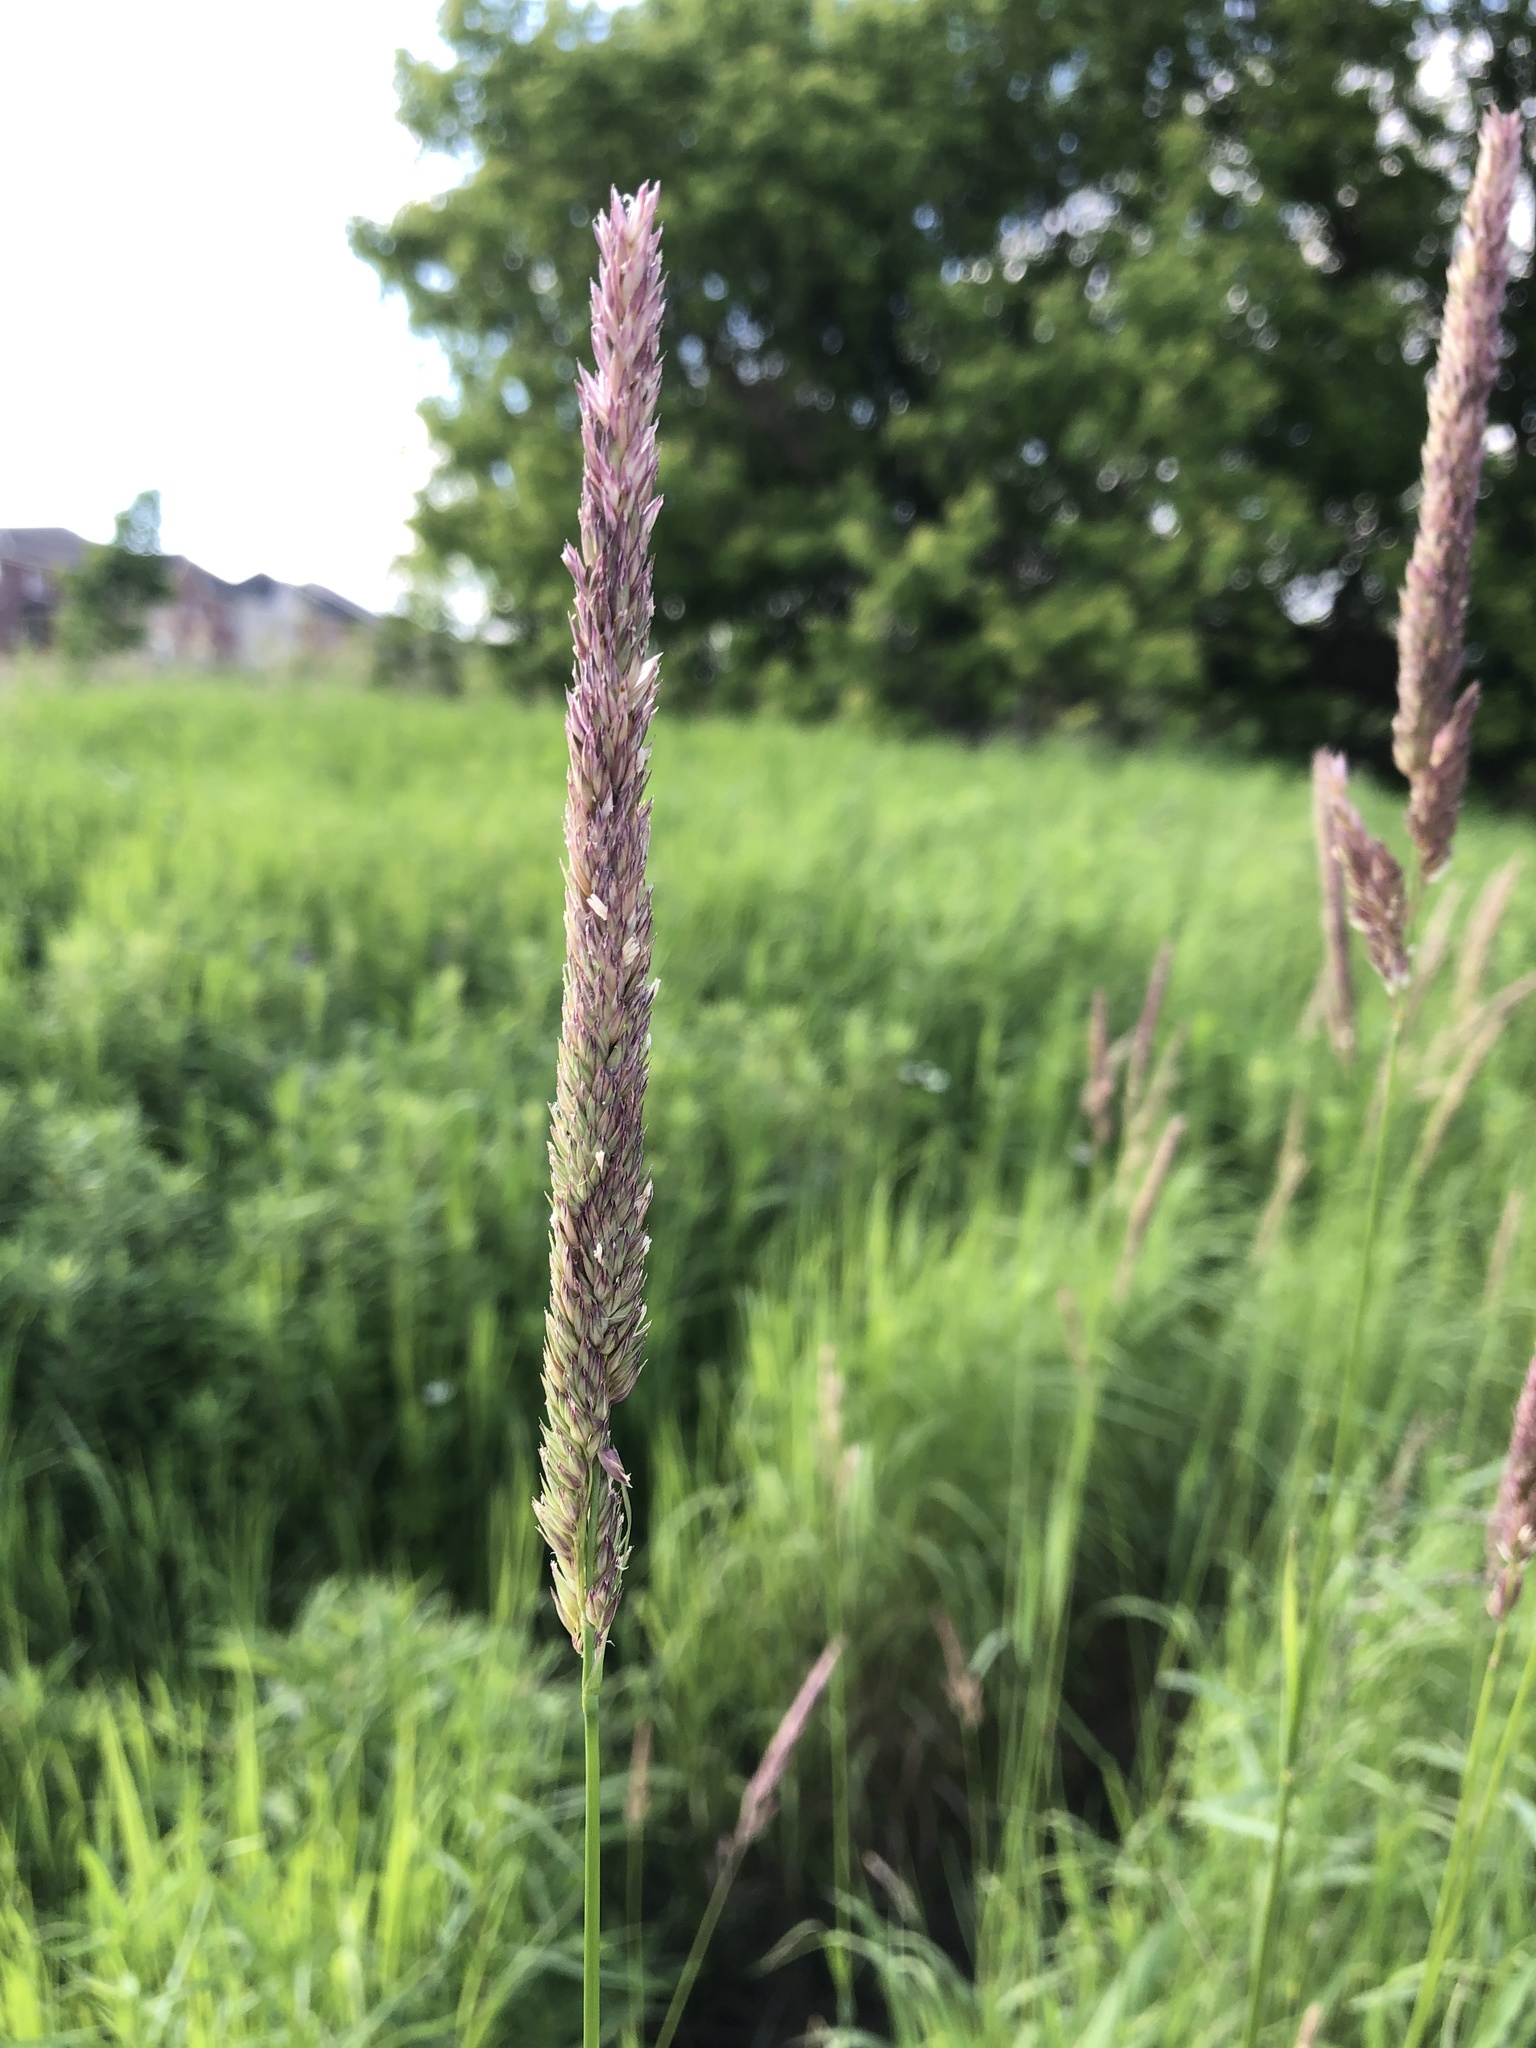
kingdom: Plantae
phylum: Tracheophyta
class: Liliopsida
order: Poales
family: Poaceae
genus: Phalaris
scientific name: Phalaris arundinacea
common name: Reed canary-grass
